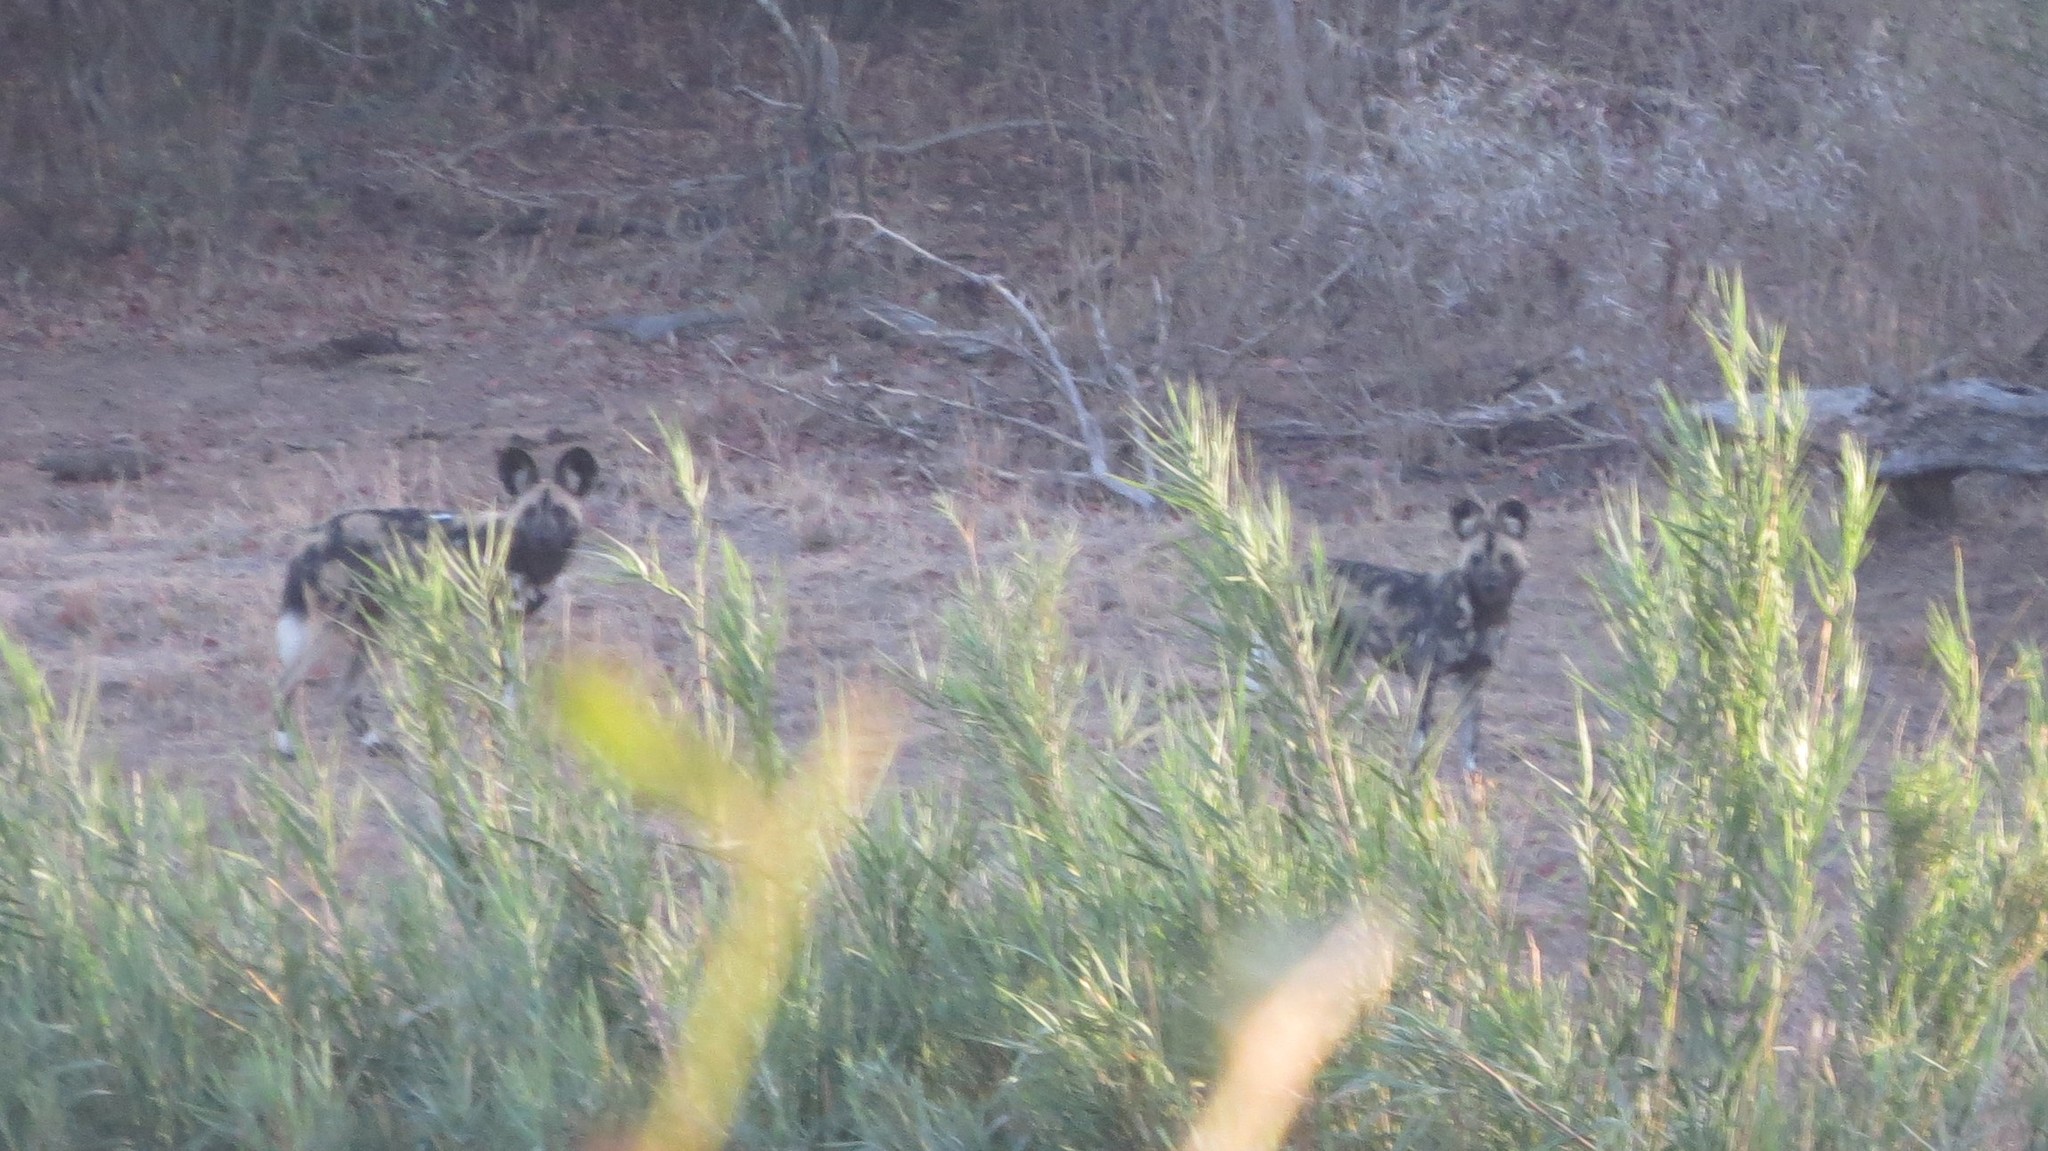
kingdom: Animalia
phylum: Chordata
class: Mammalia
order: Carnivora
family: Canidae
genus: Lycaon
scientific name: Lycaon pictus
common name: African wild dog
